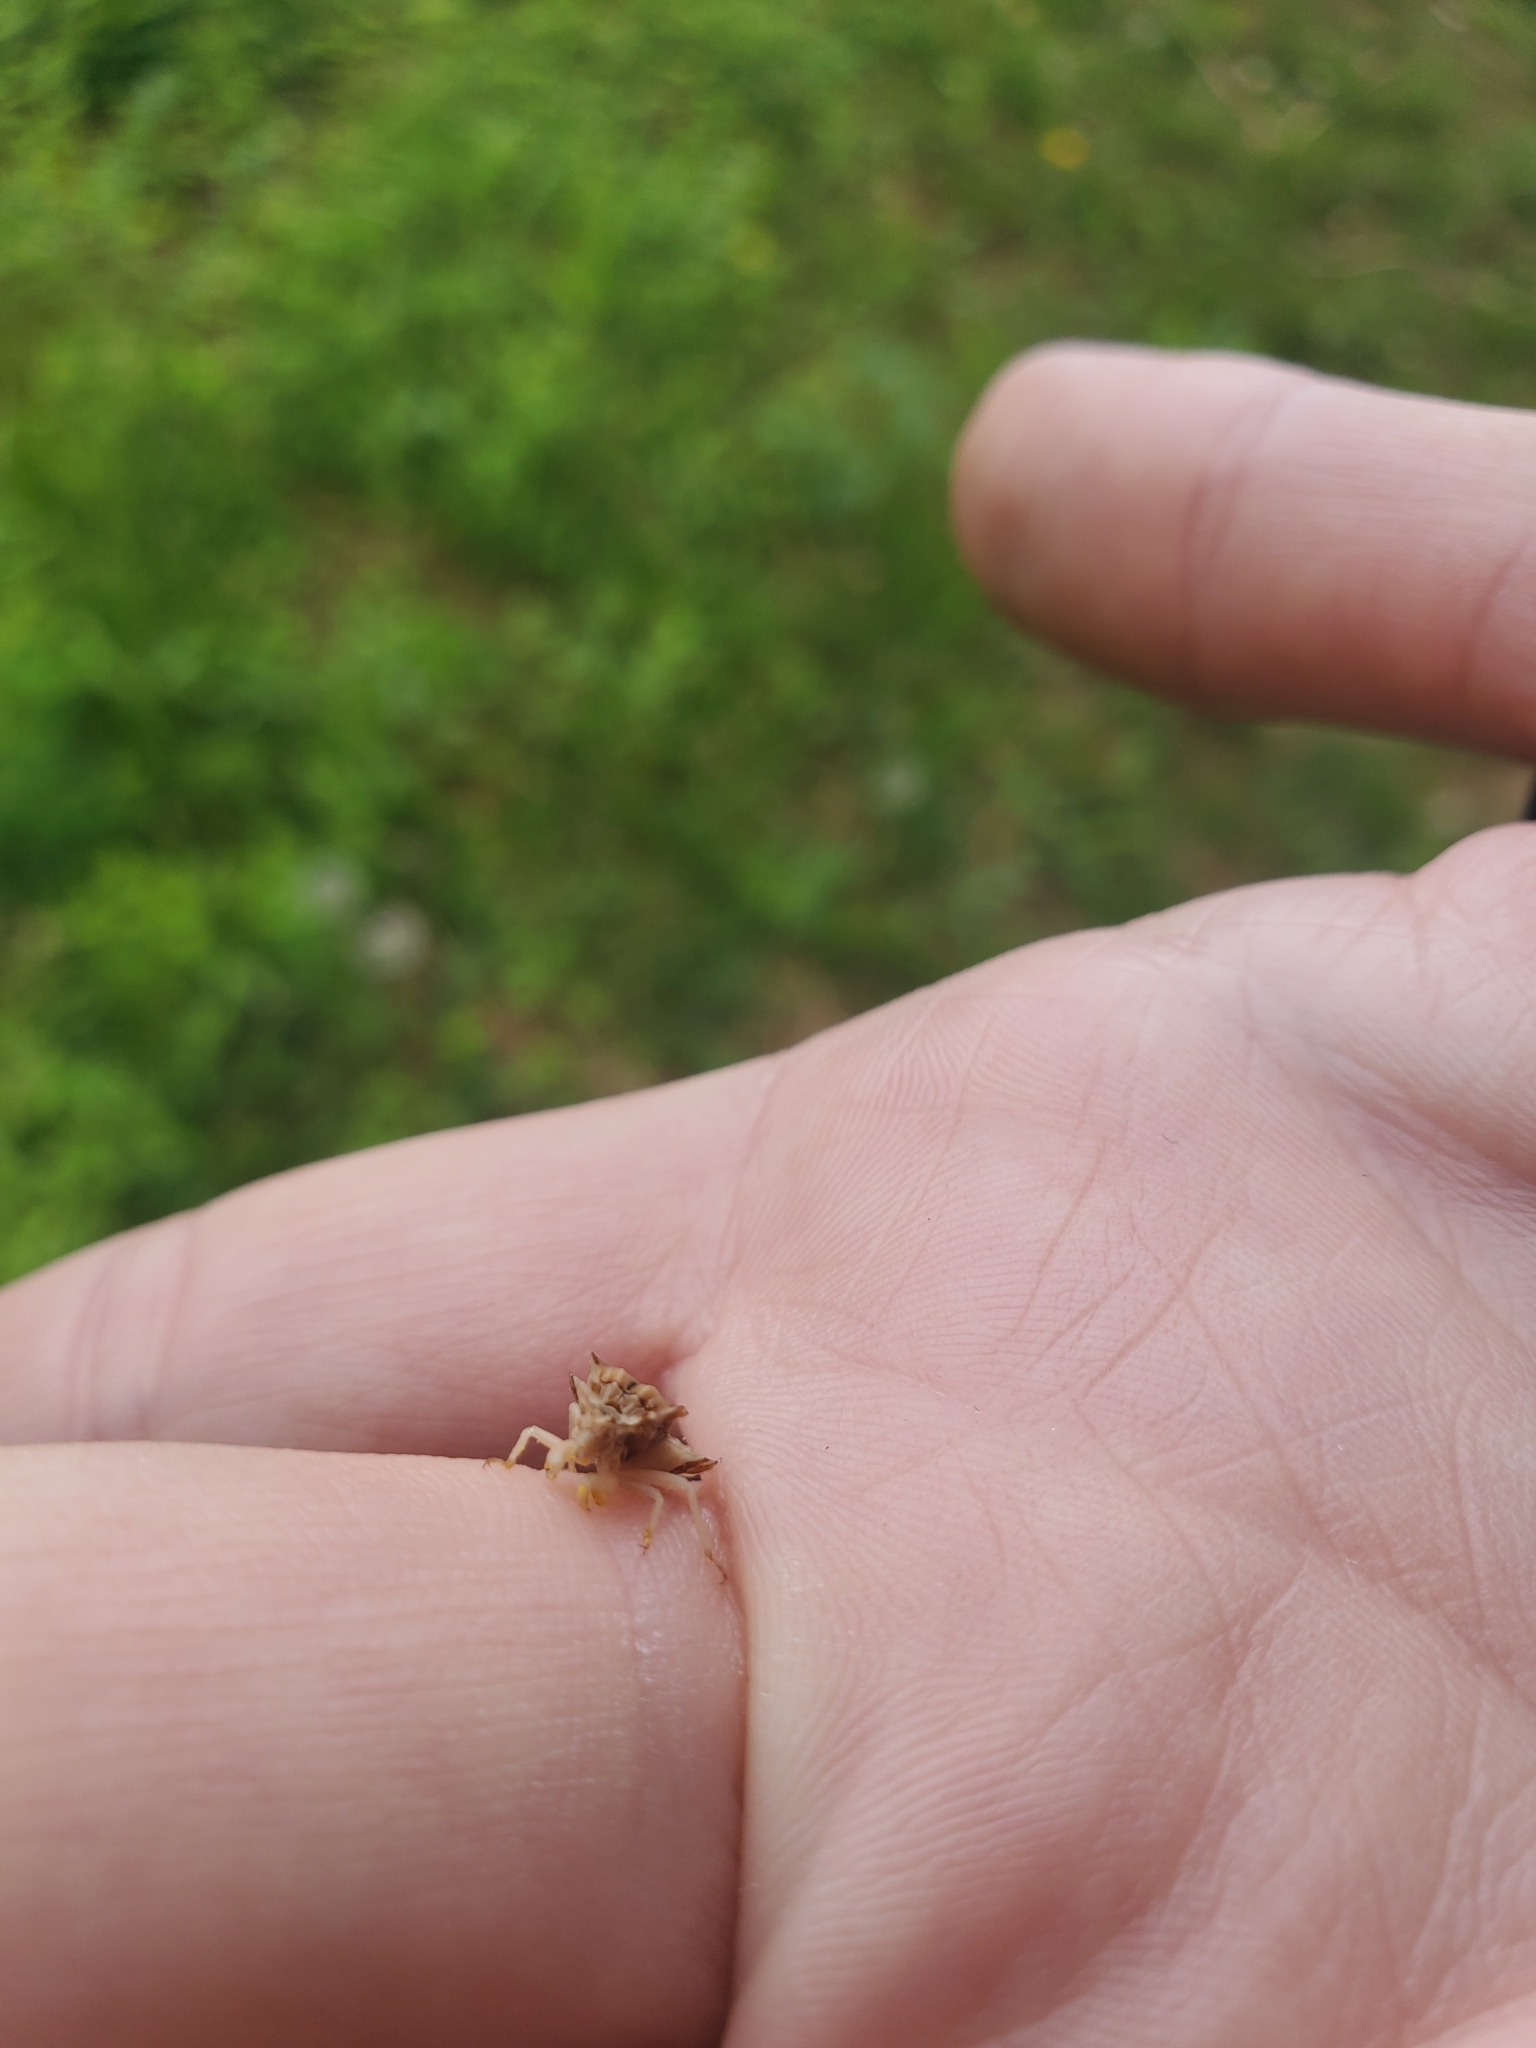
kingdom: Animalia
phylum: Arthropoda
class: Insecta
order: Hemiptera
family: Reduviidae
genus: Phymata
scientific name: Phymata fasciata
